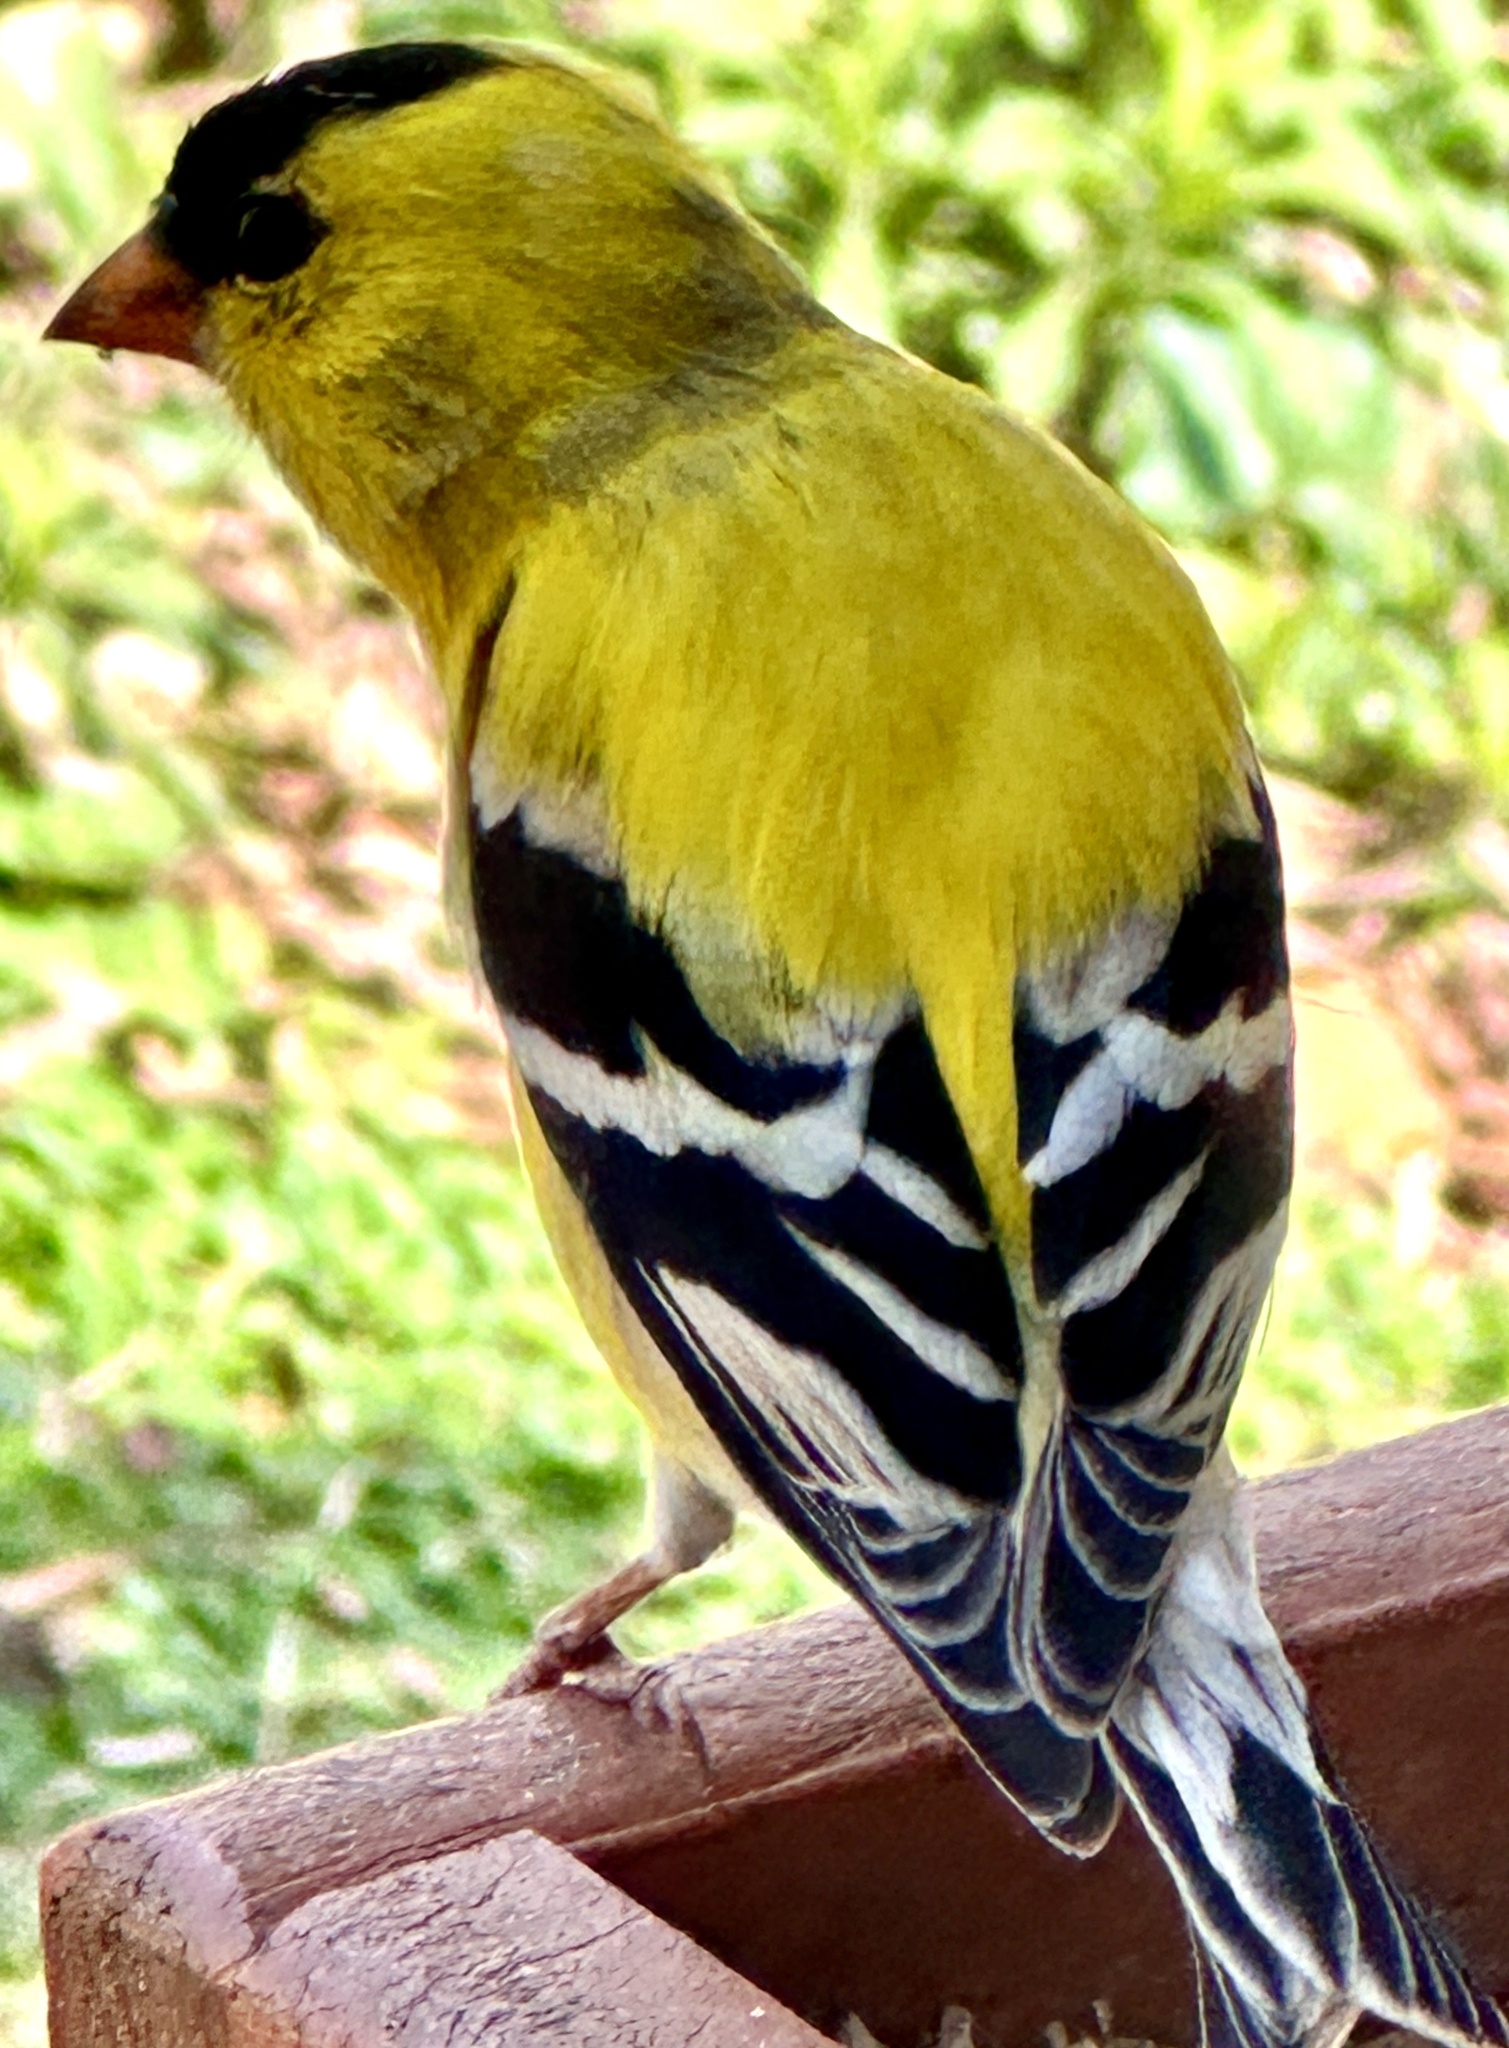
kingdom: Animalia
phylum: Chordata
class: Aves
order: Passeriformes
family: Fringillidae
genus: Spinus
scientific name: Spinus tristis
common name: American goldfinch
